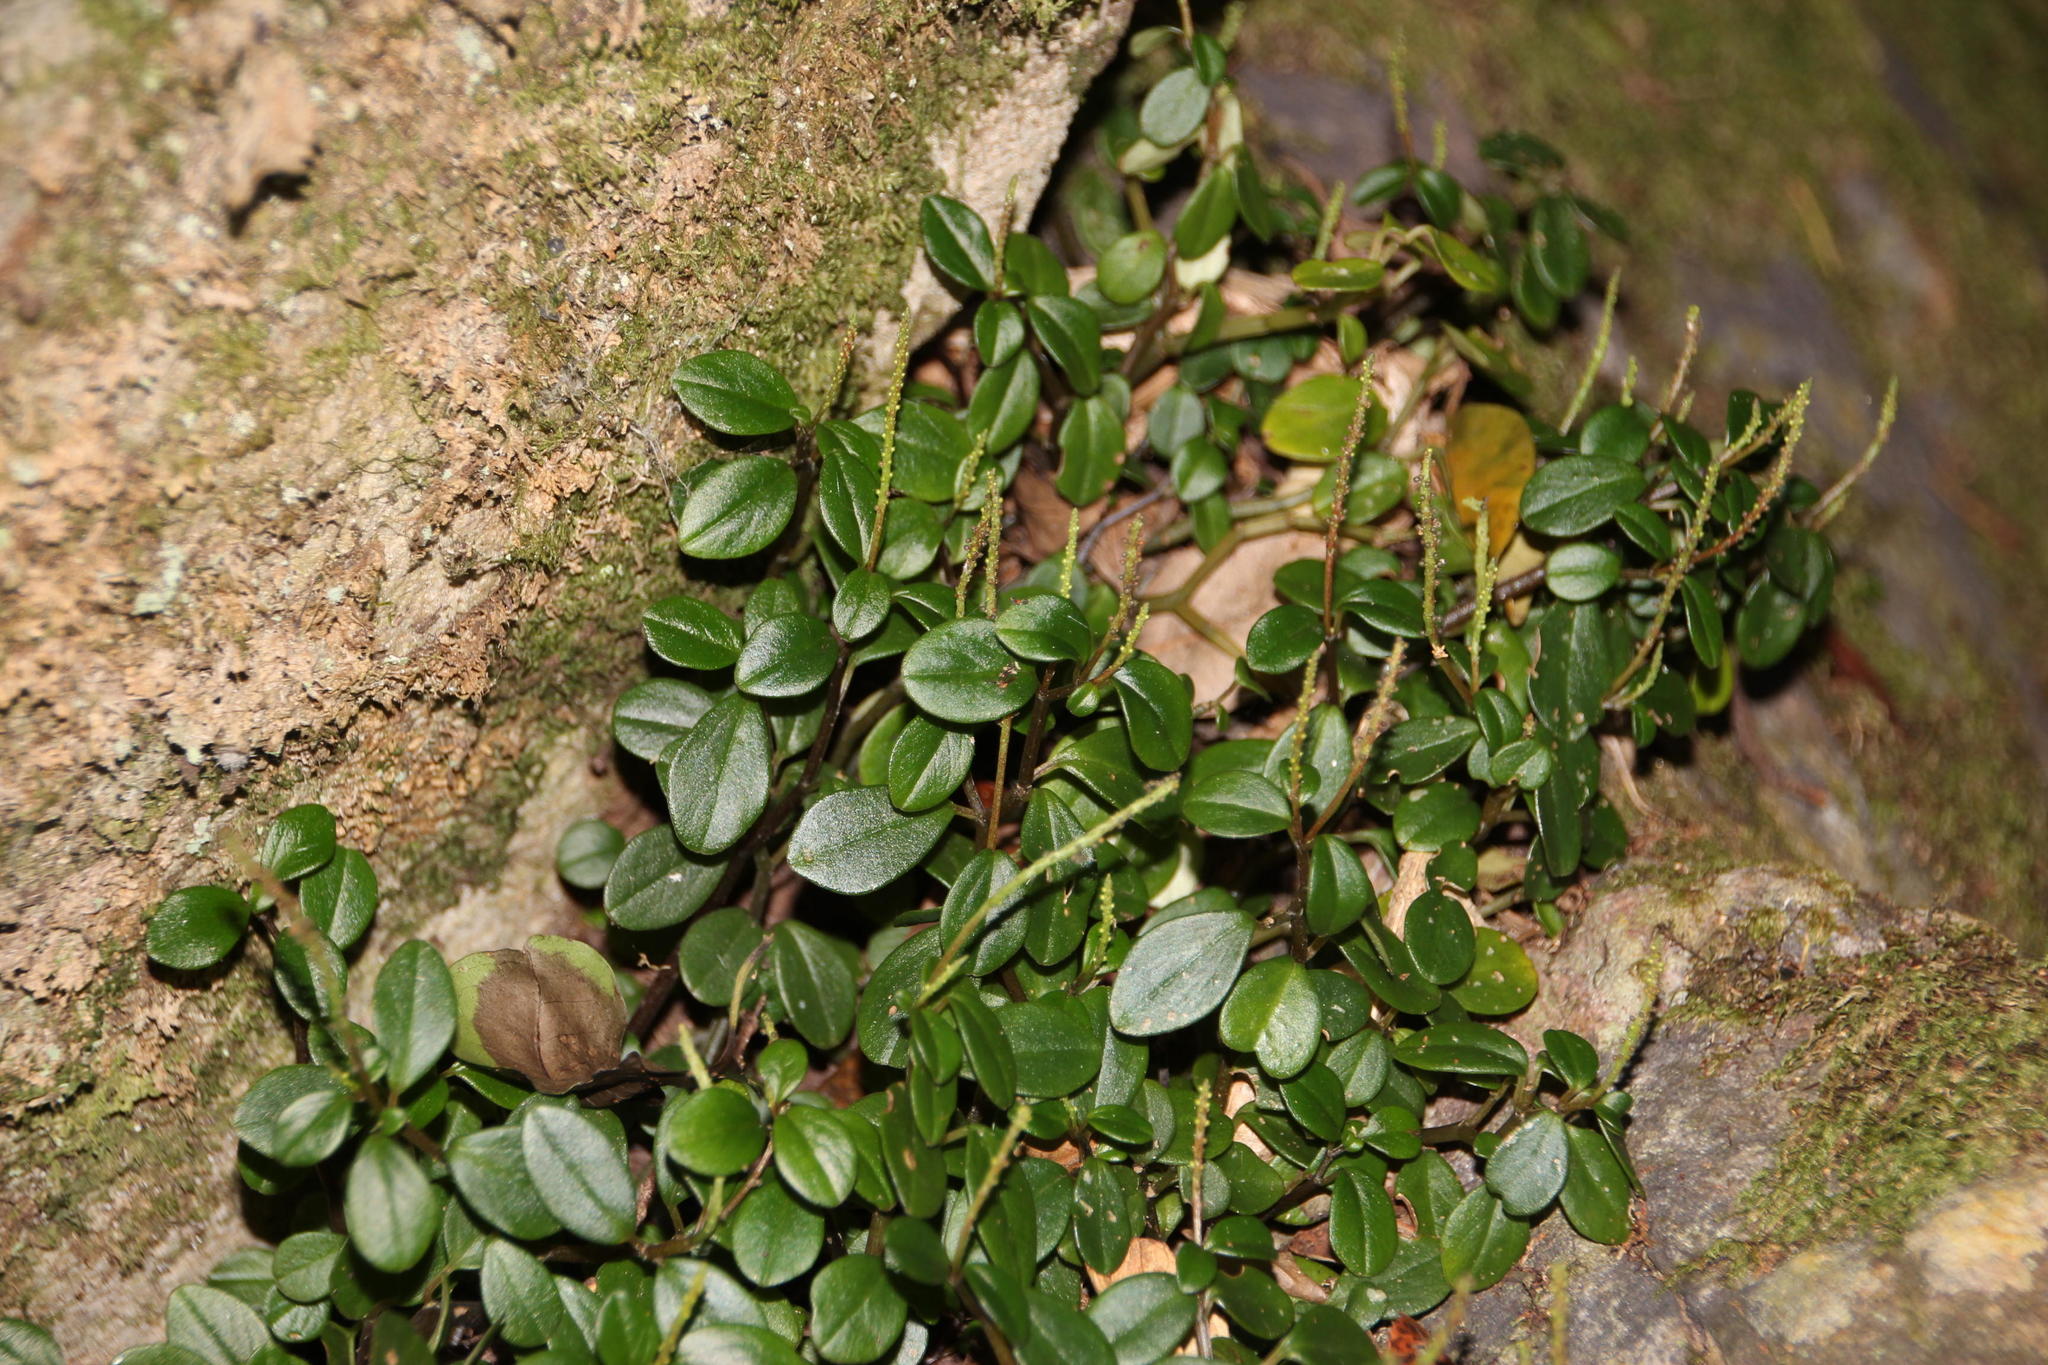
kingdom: Plantae
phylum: Tracheophyta
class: Magnoliopsida
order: Piperales
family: Piperaceae
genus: Peperomia
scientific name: Peperomia retusa
